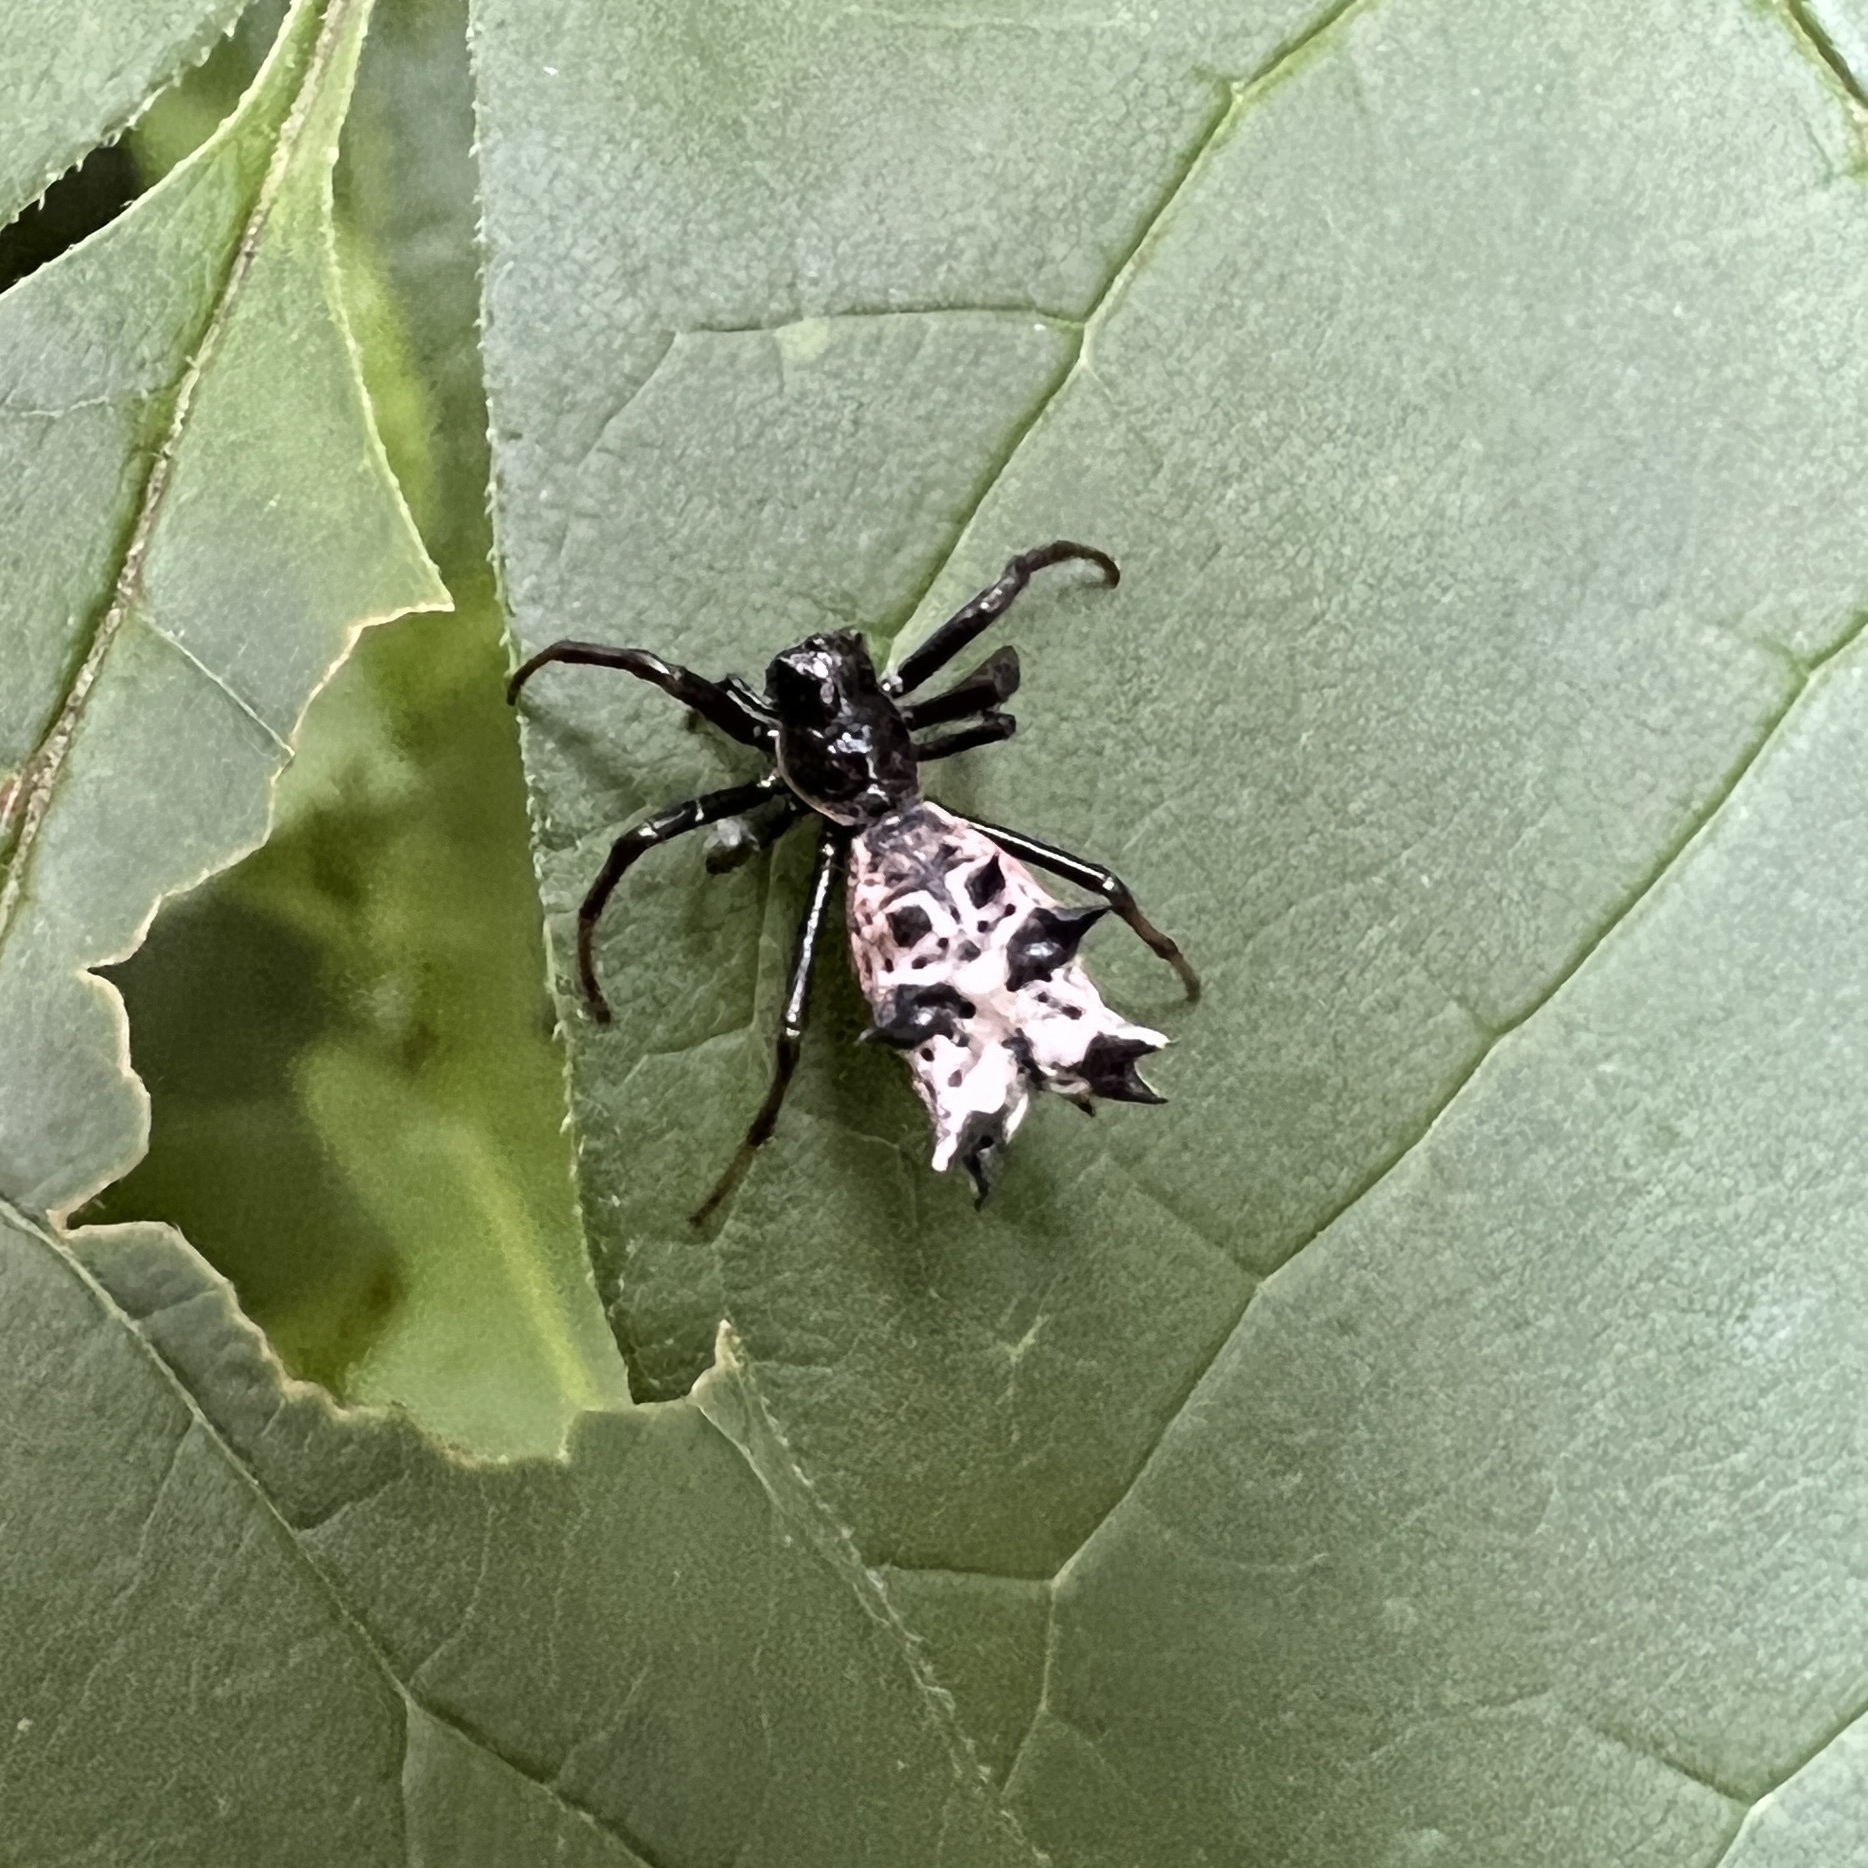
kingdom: Animalia
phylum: Arthropoda
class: Arachnida
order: Araneae
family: Araneidae
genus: Micrathena
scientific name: Micrathena gracilis
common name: Orb weavers
